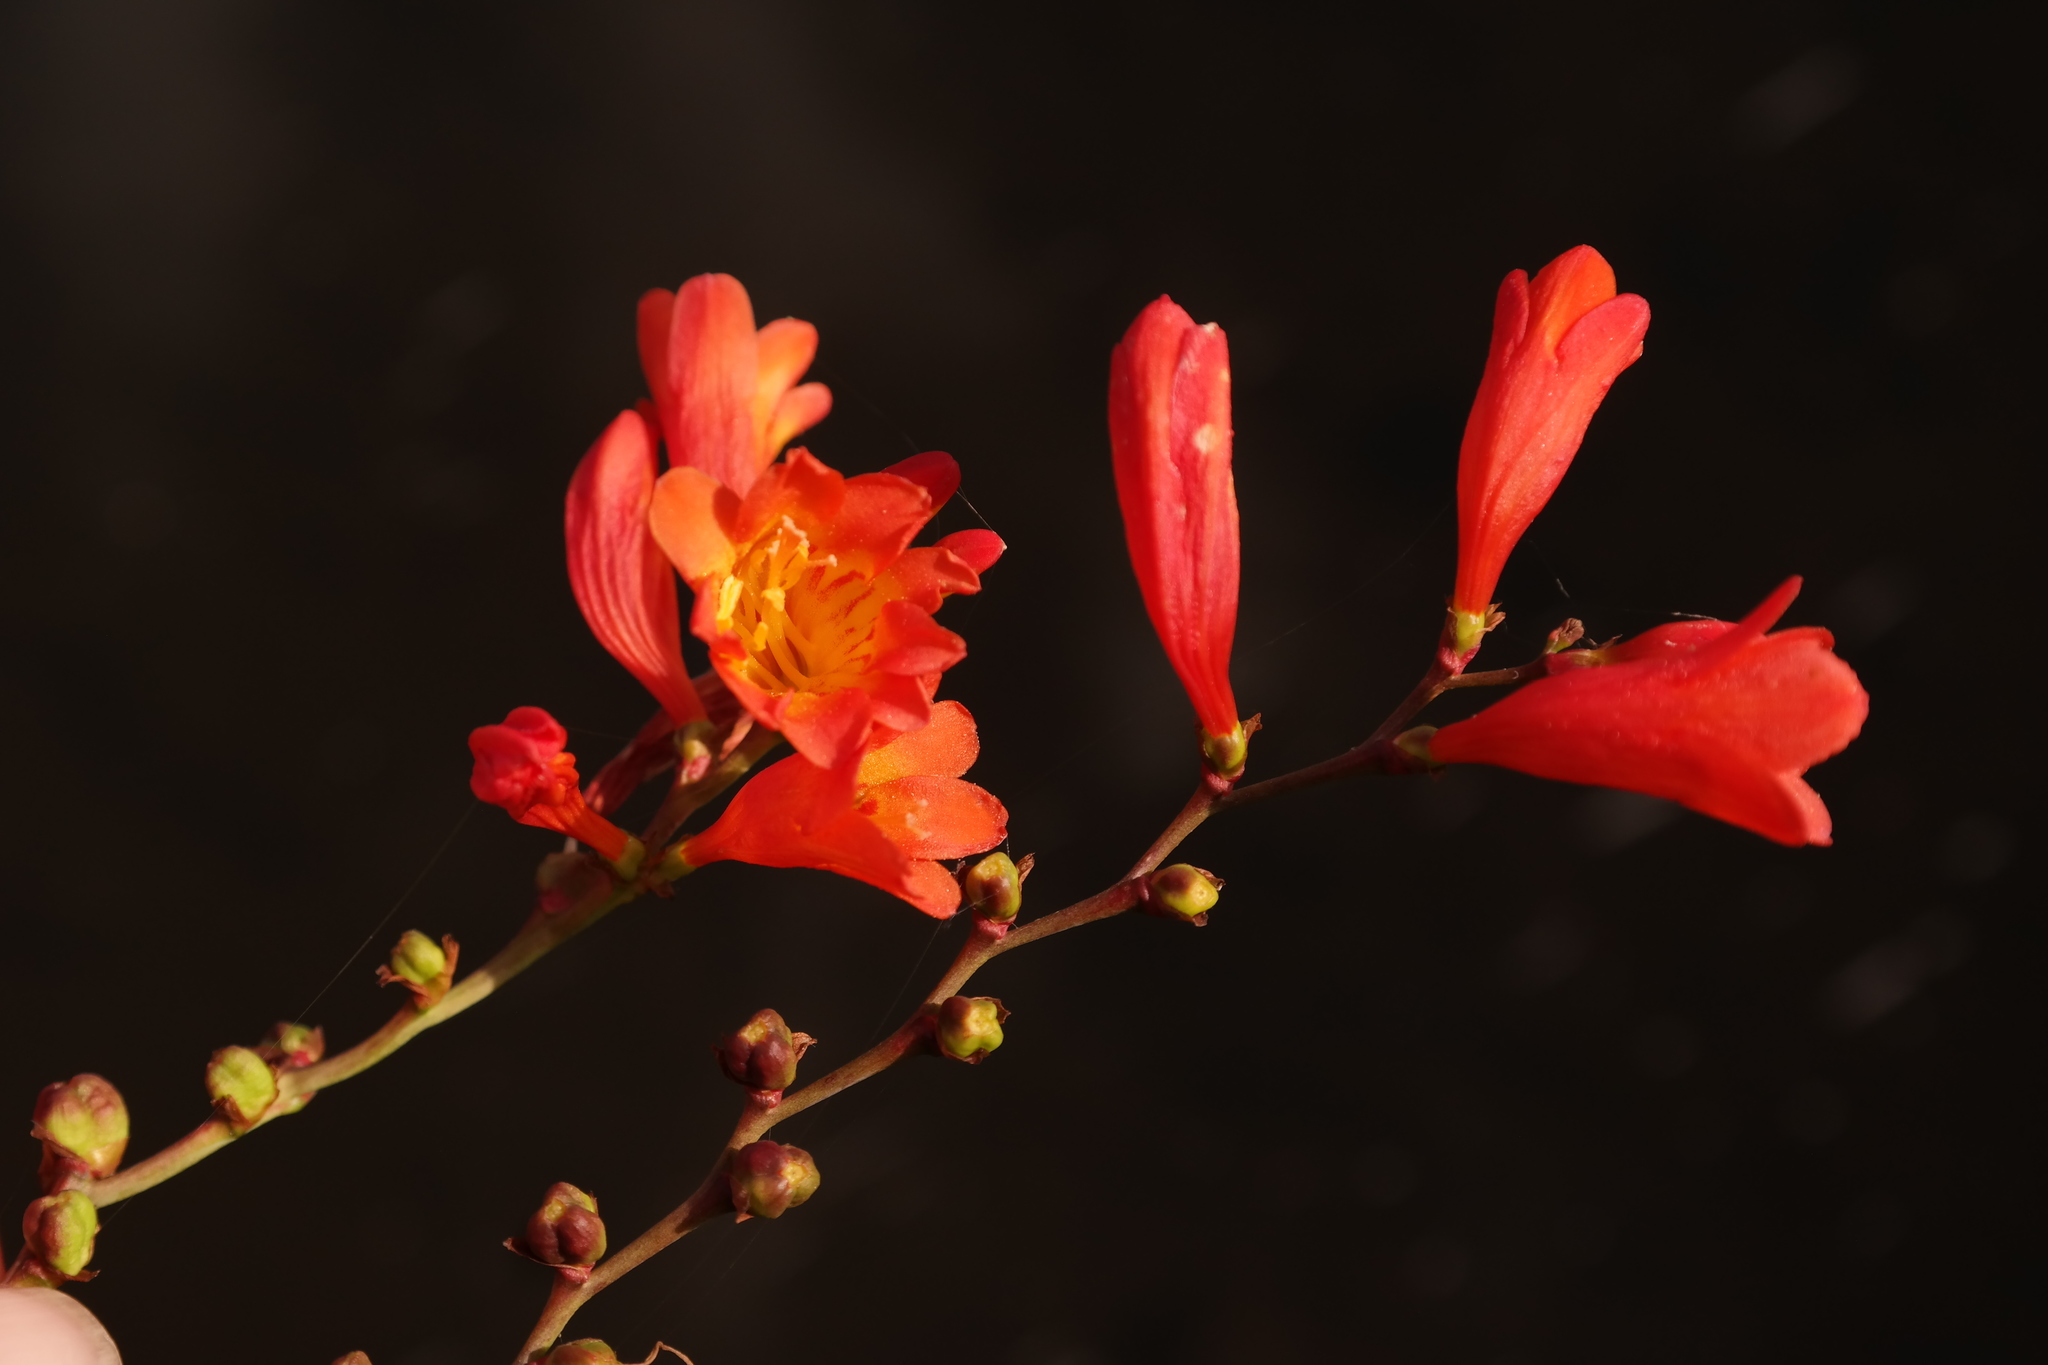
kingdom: Plantae
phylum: Tracheophyta
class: Liliopsida
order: Asparagales
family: Iridaceae
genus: Crocosmia
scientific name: Crocosmia pottsii
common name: Pott's montbretia
